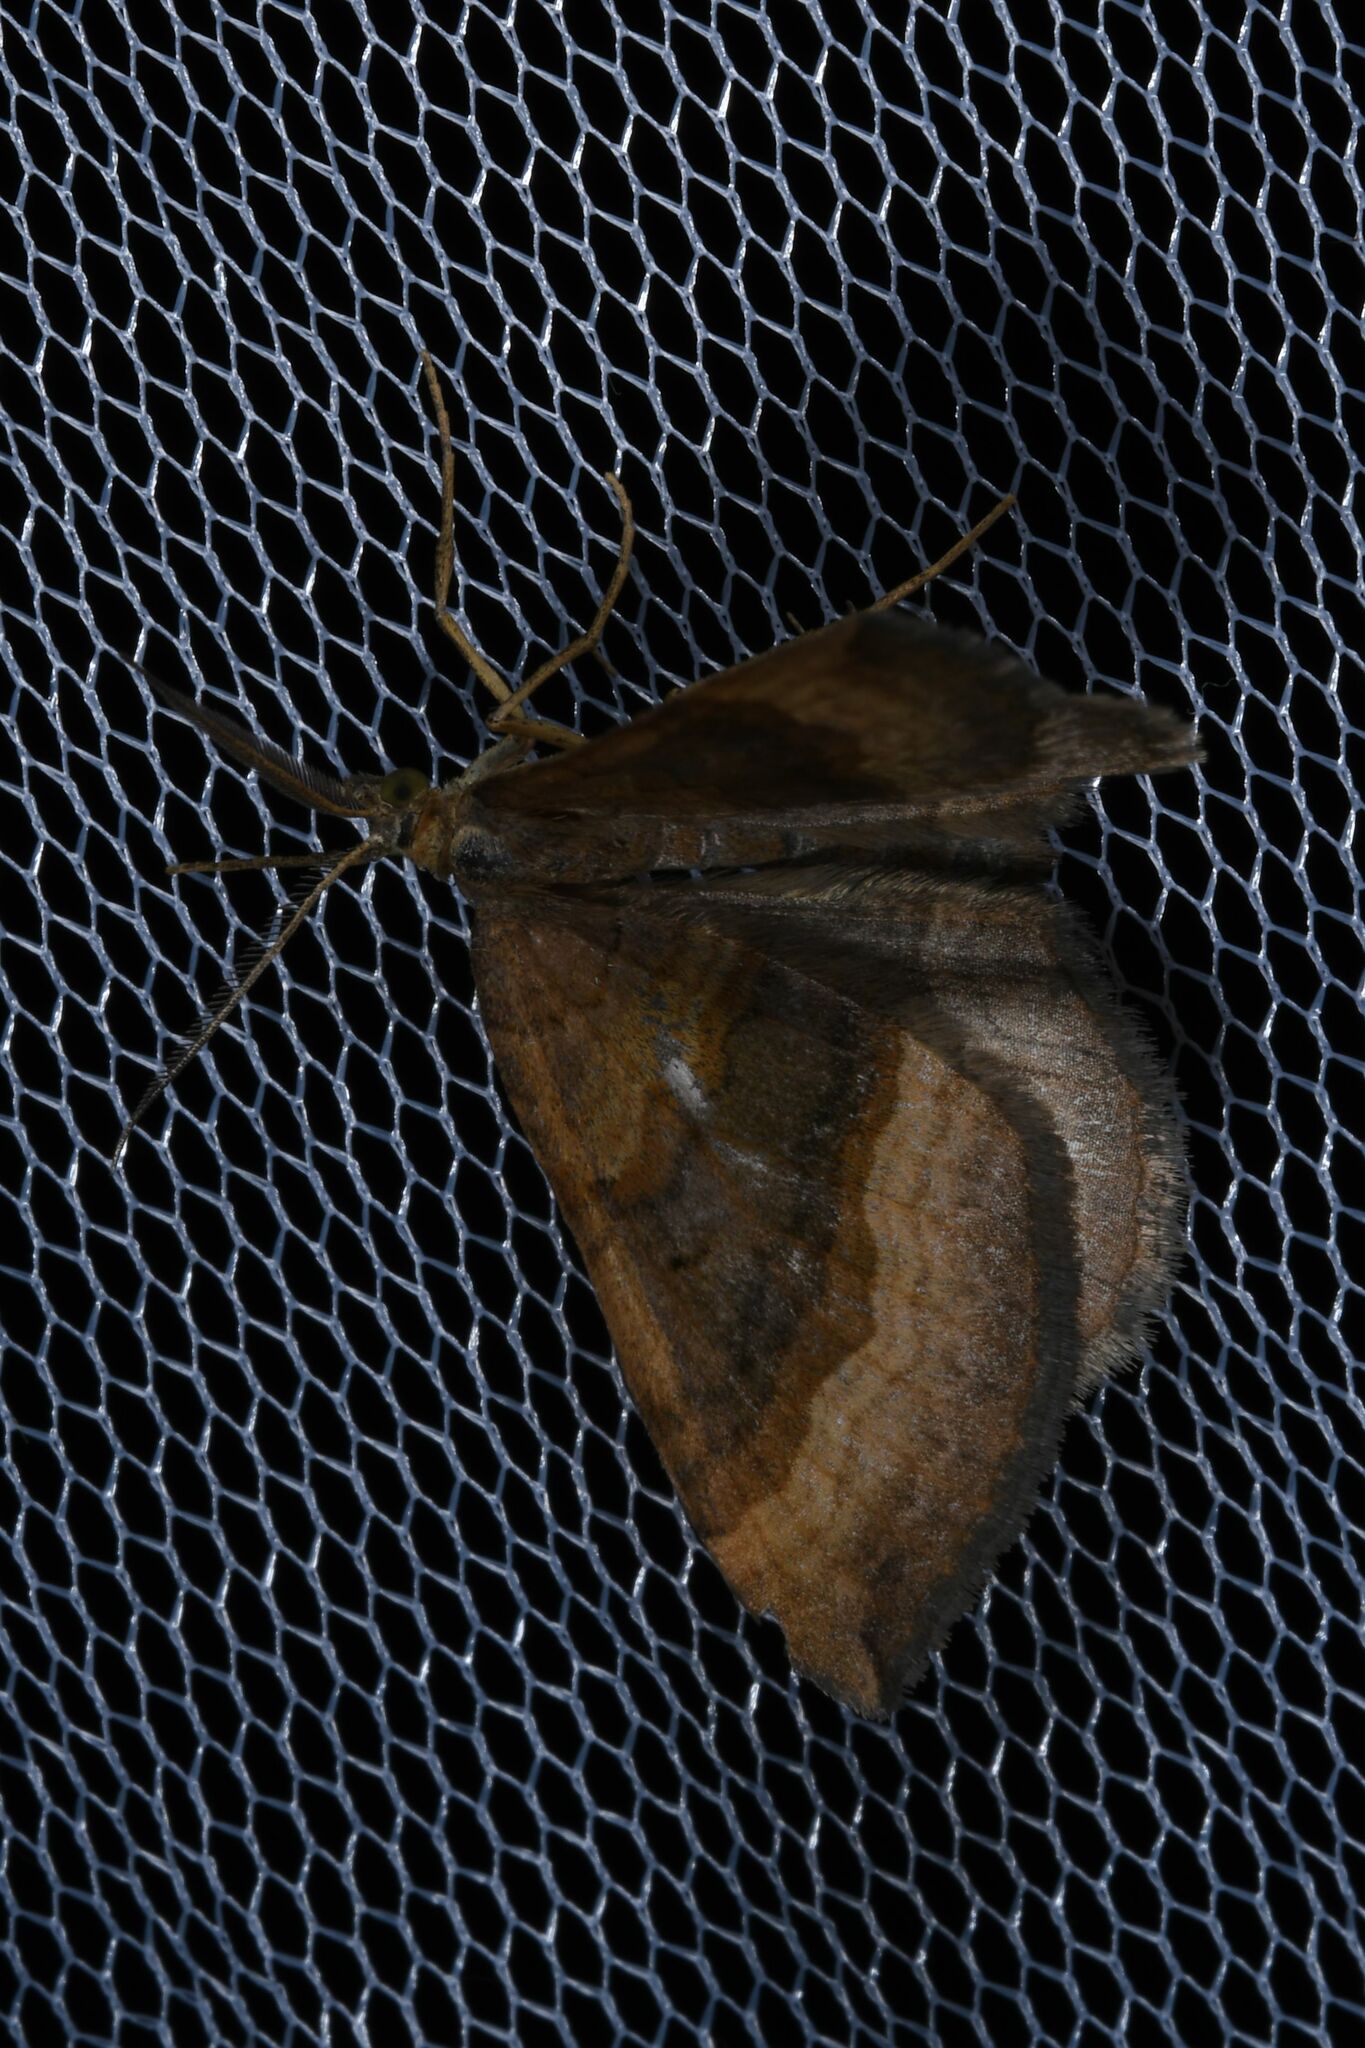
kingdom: Animalia
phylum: Arthropoda
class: Insecta
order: Lepidoptera
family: Geometridae
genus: Scotopteryx
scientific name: Scotopteryx chenopodiata
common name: Shaded broad-bar
